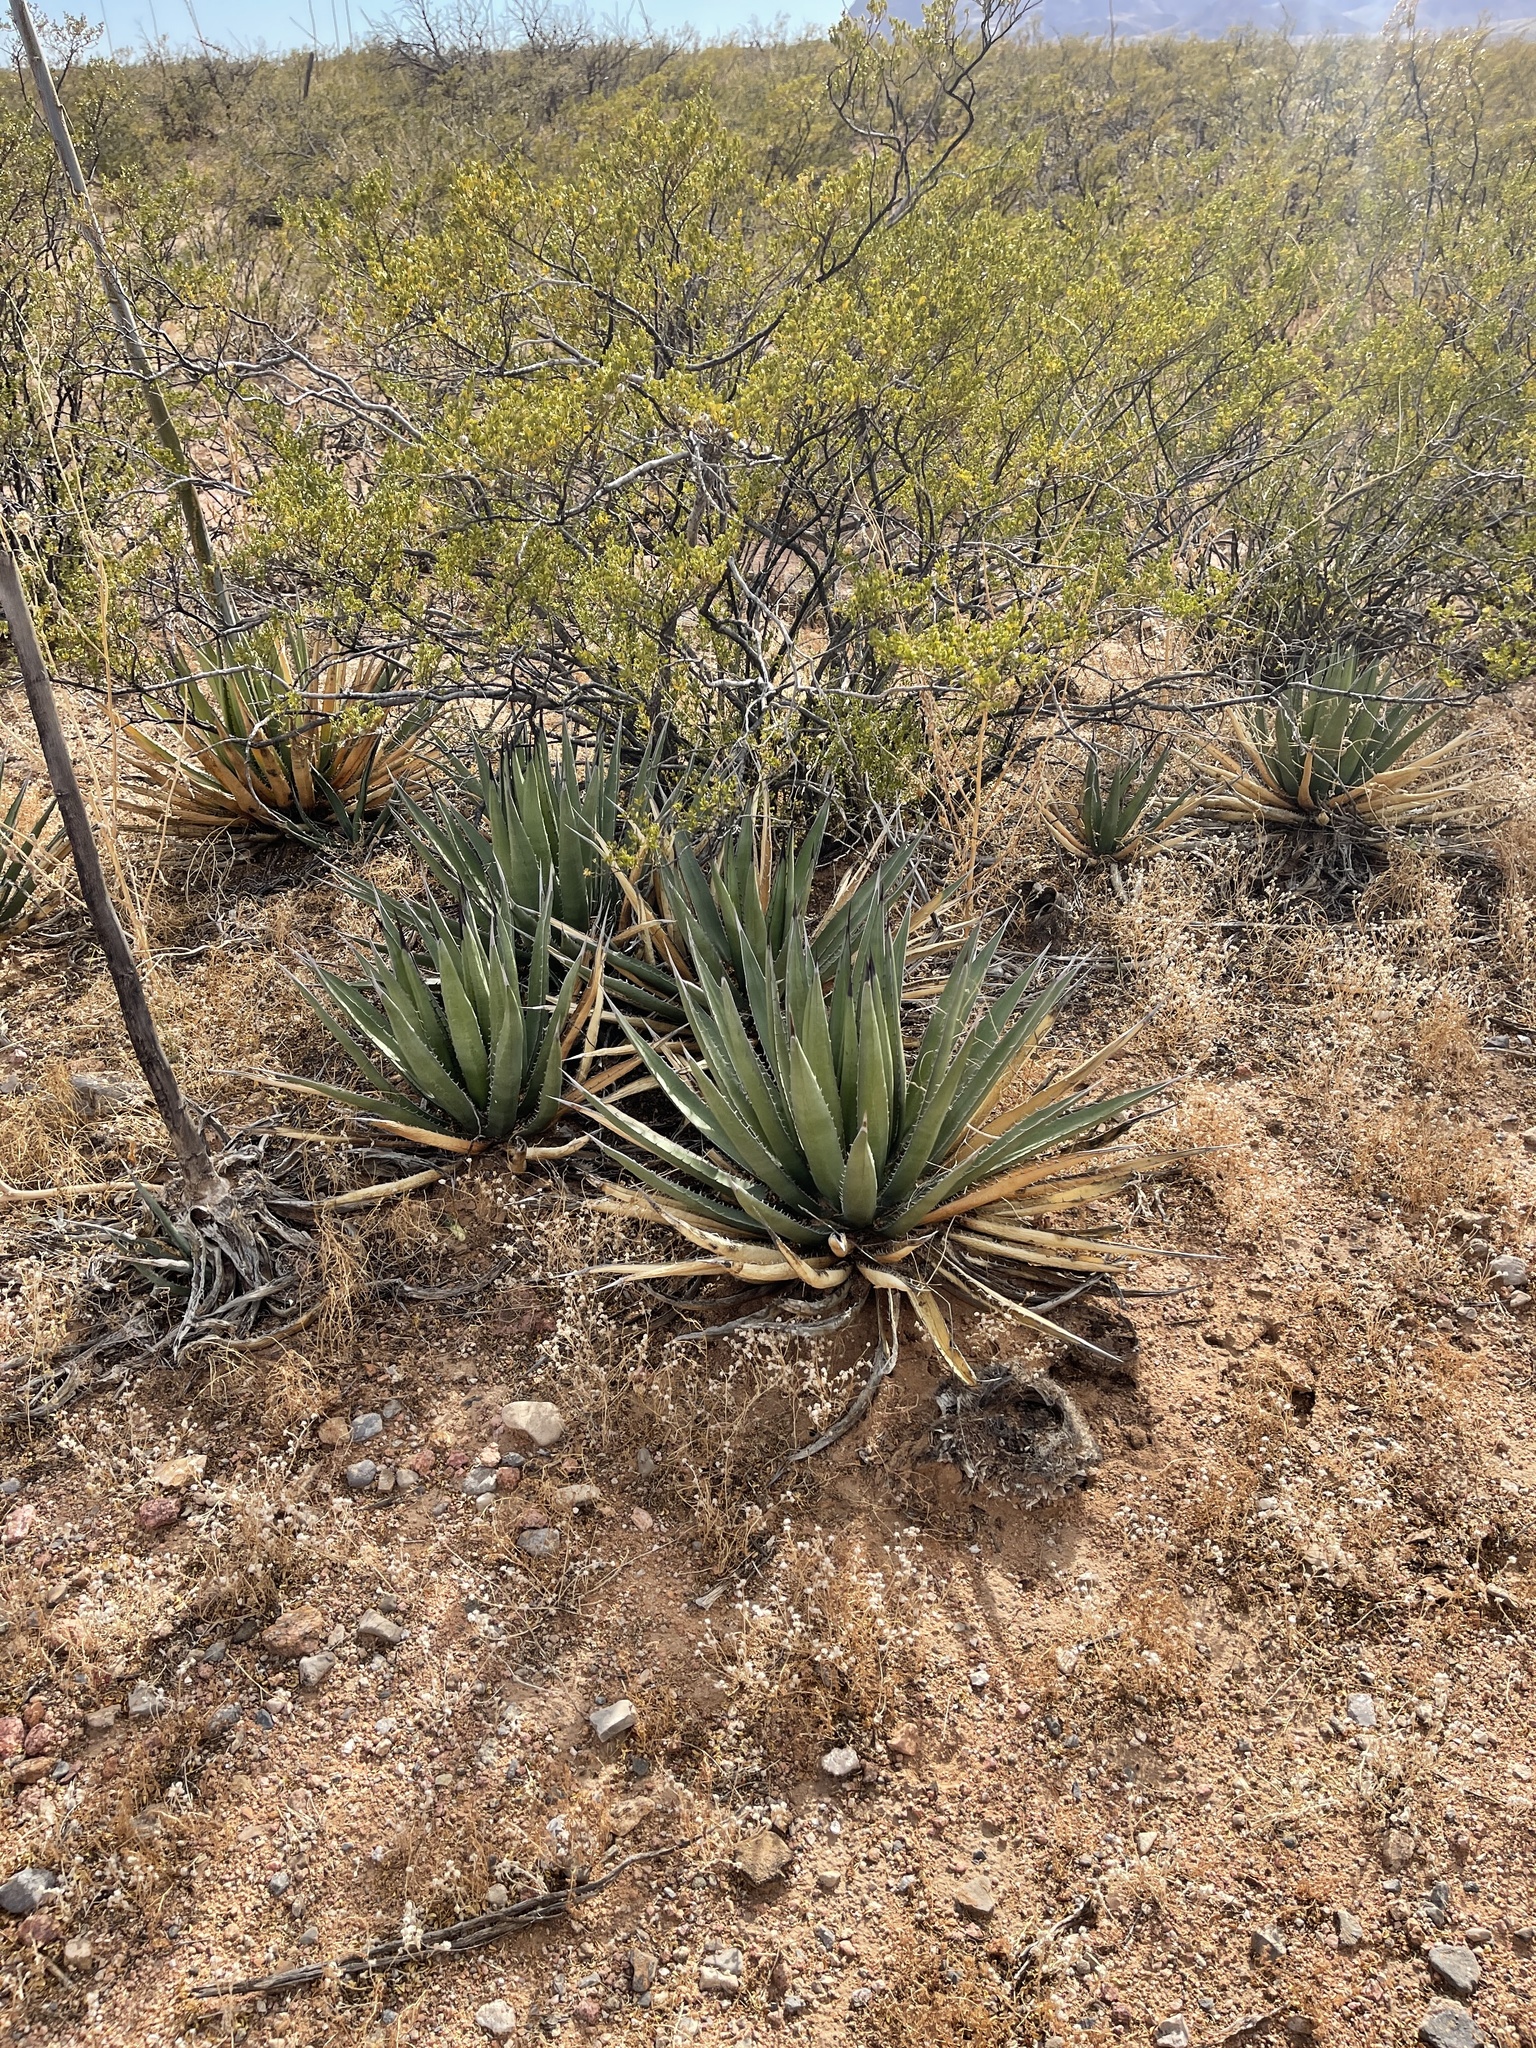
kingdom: Plantae
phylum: Tracheophyta
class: Liliopsida
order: Asparagales
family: Asparagaceae
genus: Agave
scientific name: Agave lechuguilla
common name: Lecheguilla agave
